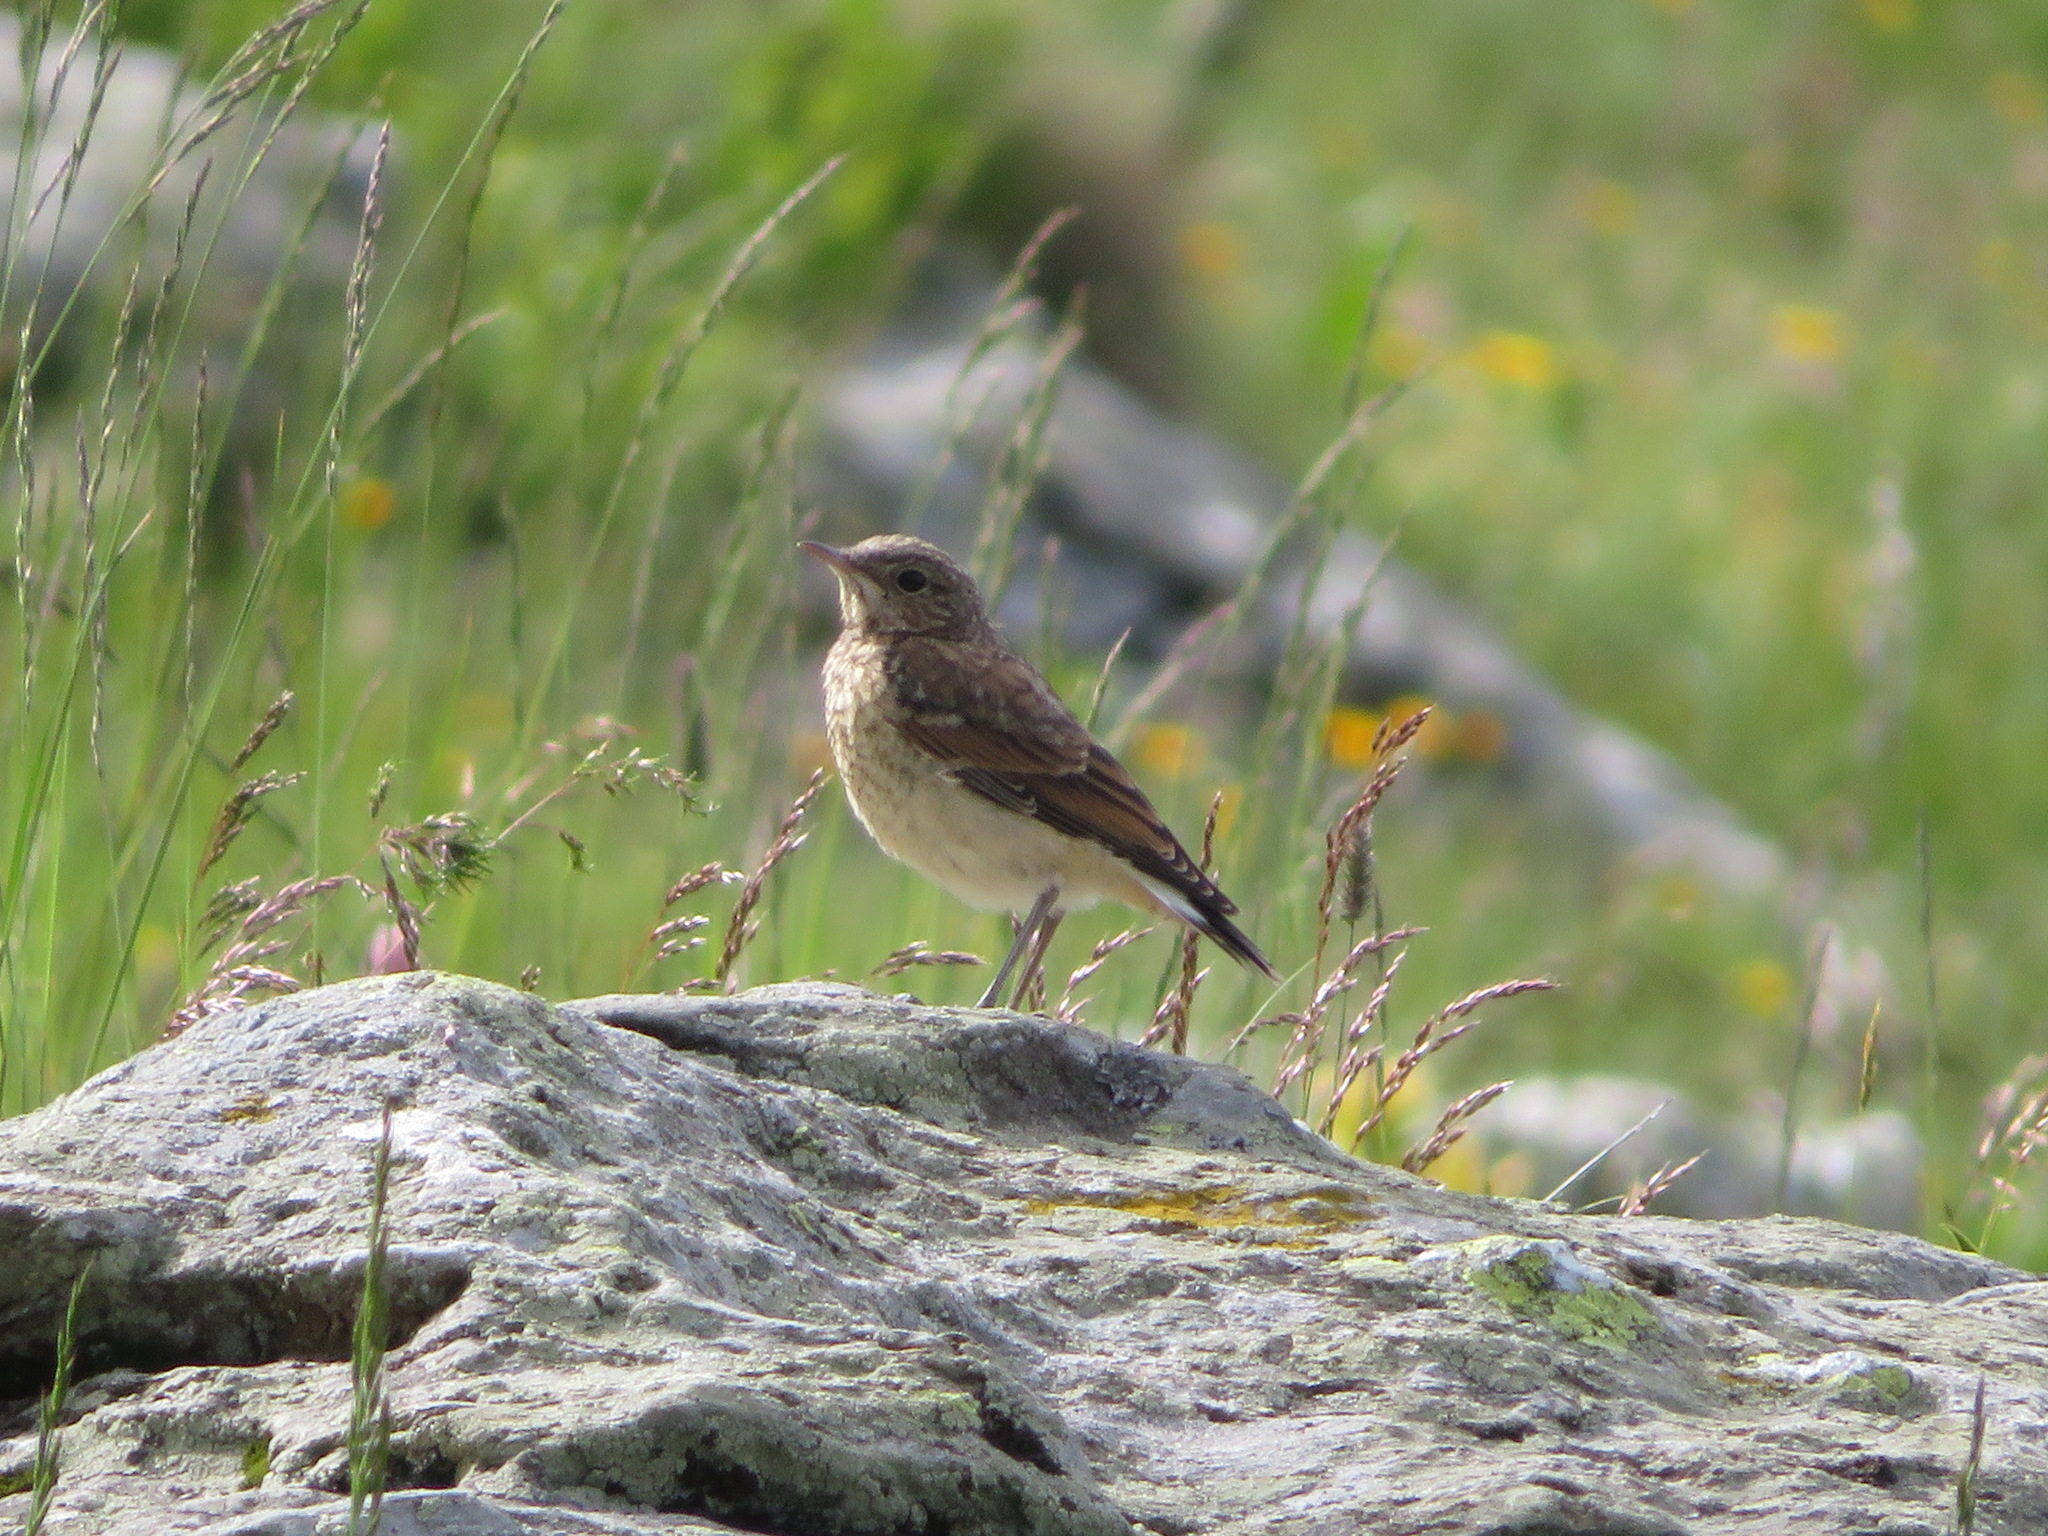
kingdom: Animalia
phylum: Chordata
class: Aves
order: Passeriformes
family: Muscicapidae
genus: Oenanthe
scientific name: Oenanthe oenanthe
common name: Northern wheatear
